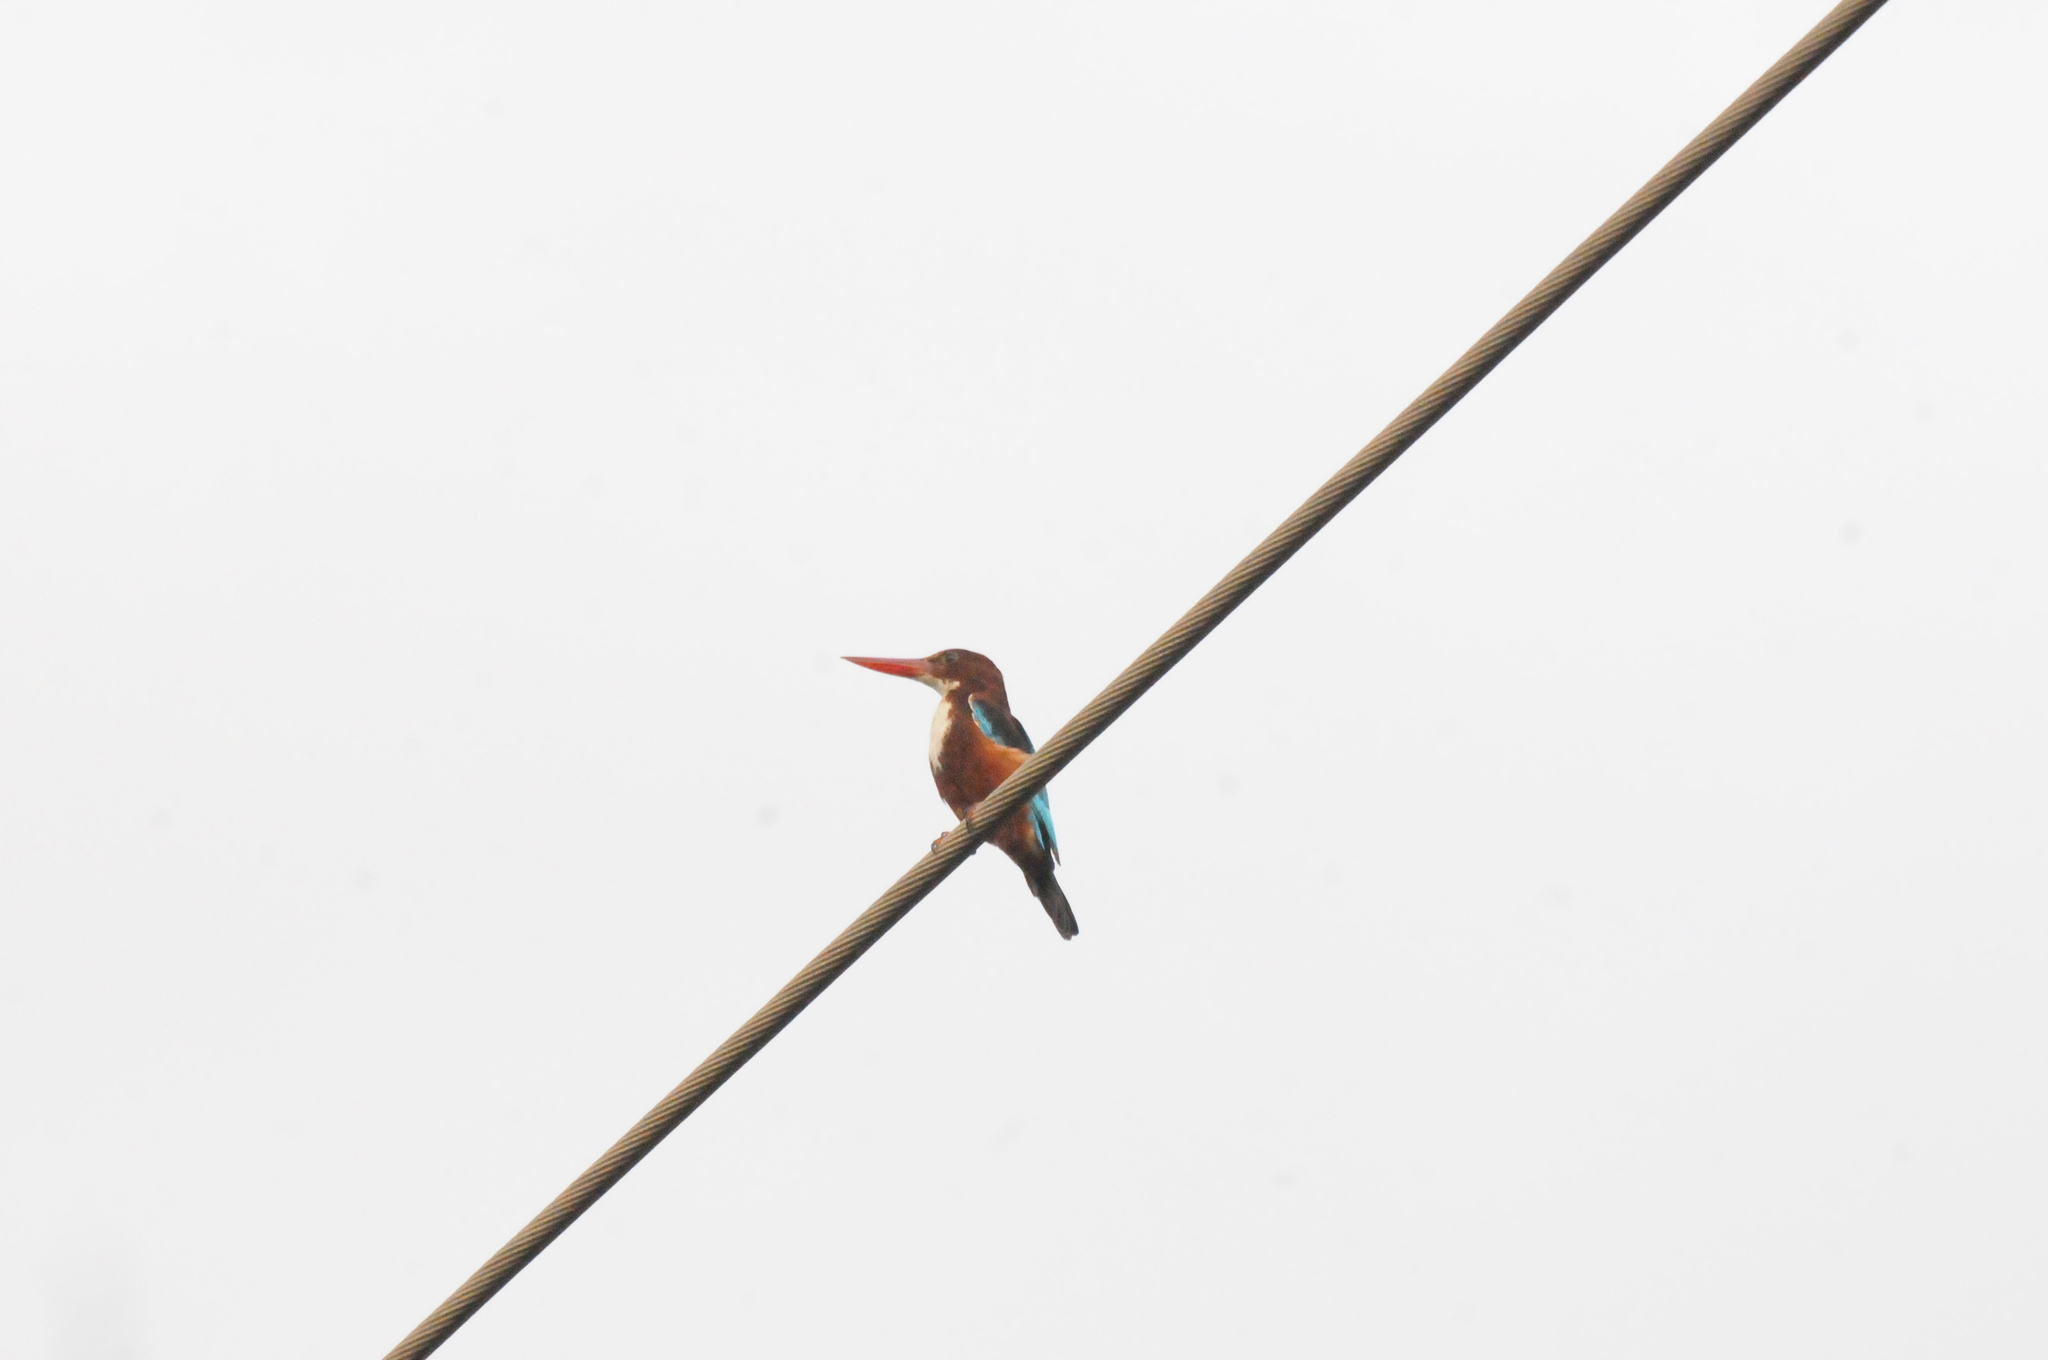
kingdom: Animalia
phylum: Chordata
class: Aves
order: Coraciiformes
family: Alcedinidae
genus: Halcyon
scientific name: Halcyon smyrnensis
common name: White-throated kingfisher
